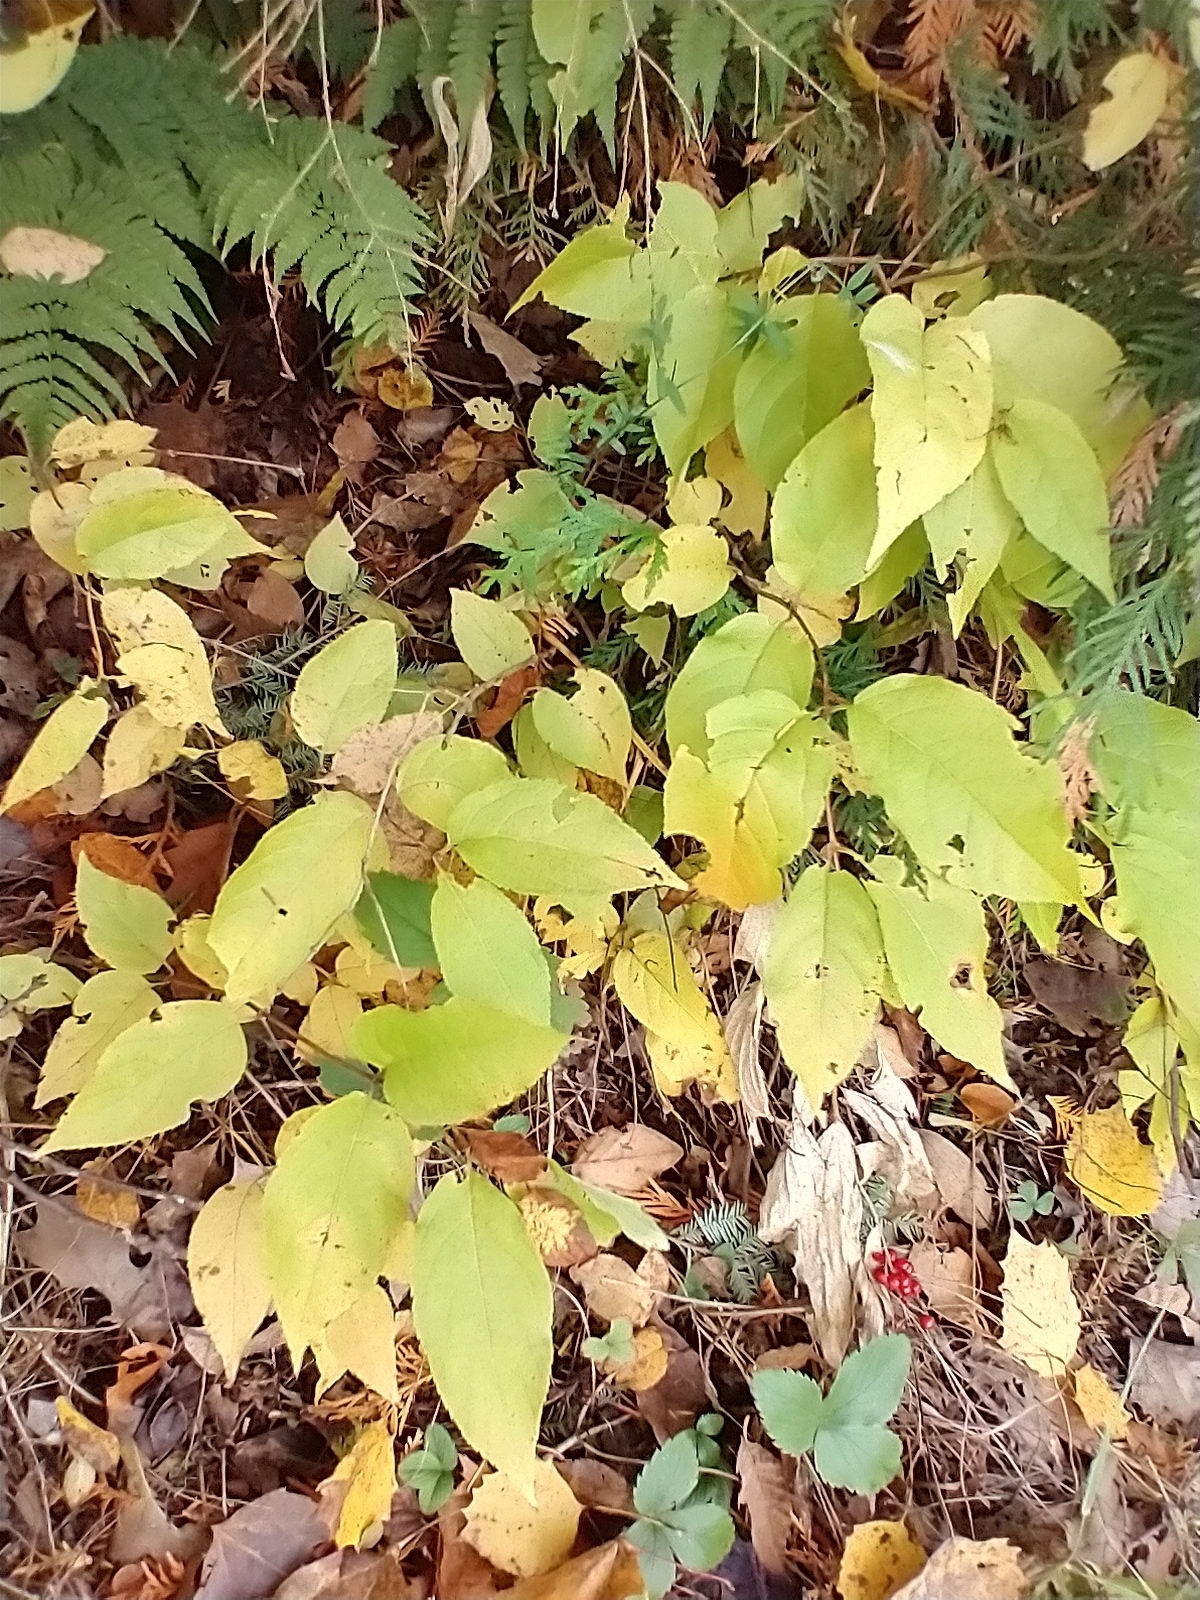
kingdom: Plantae
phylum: Tracheophyta
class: Magnoliopsida
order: Dipsacales
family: Caprifoliaceae
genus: Diervilla
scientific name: Diervilla lonicera
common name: Bush-honeysuckle
